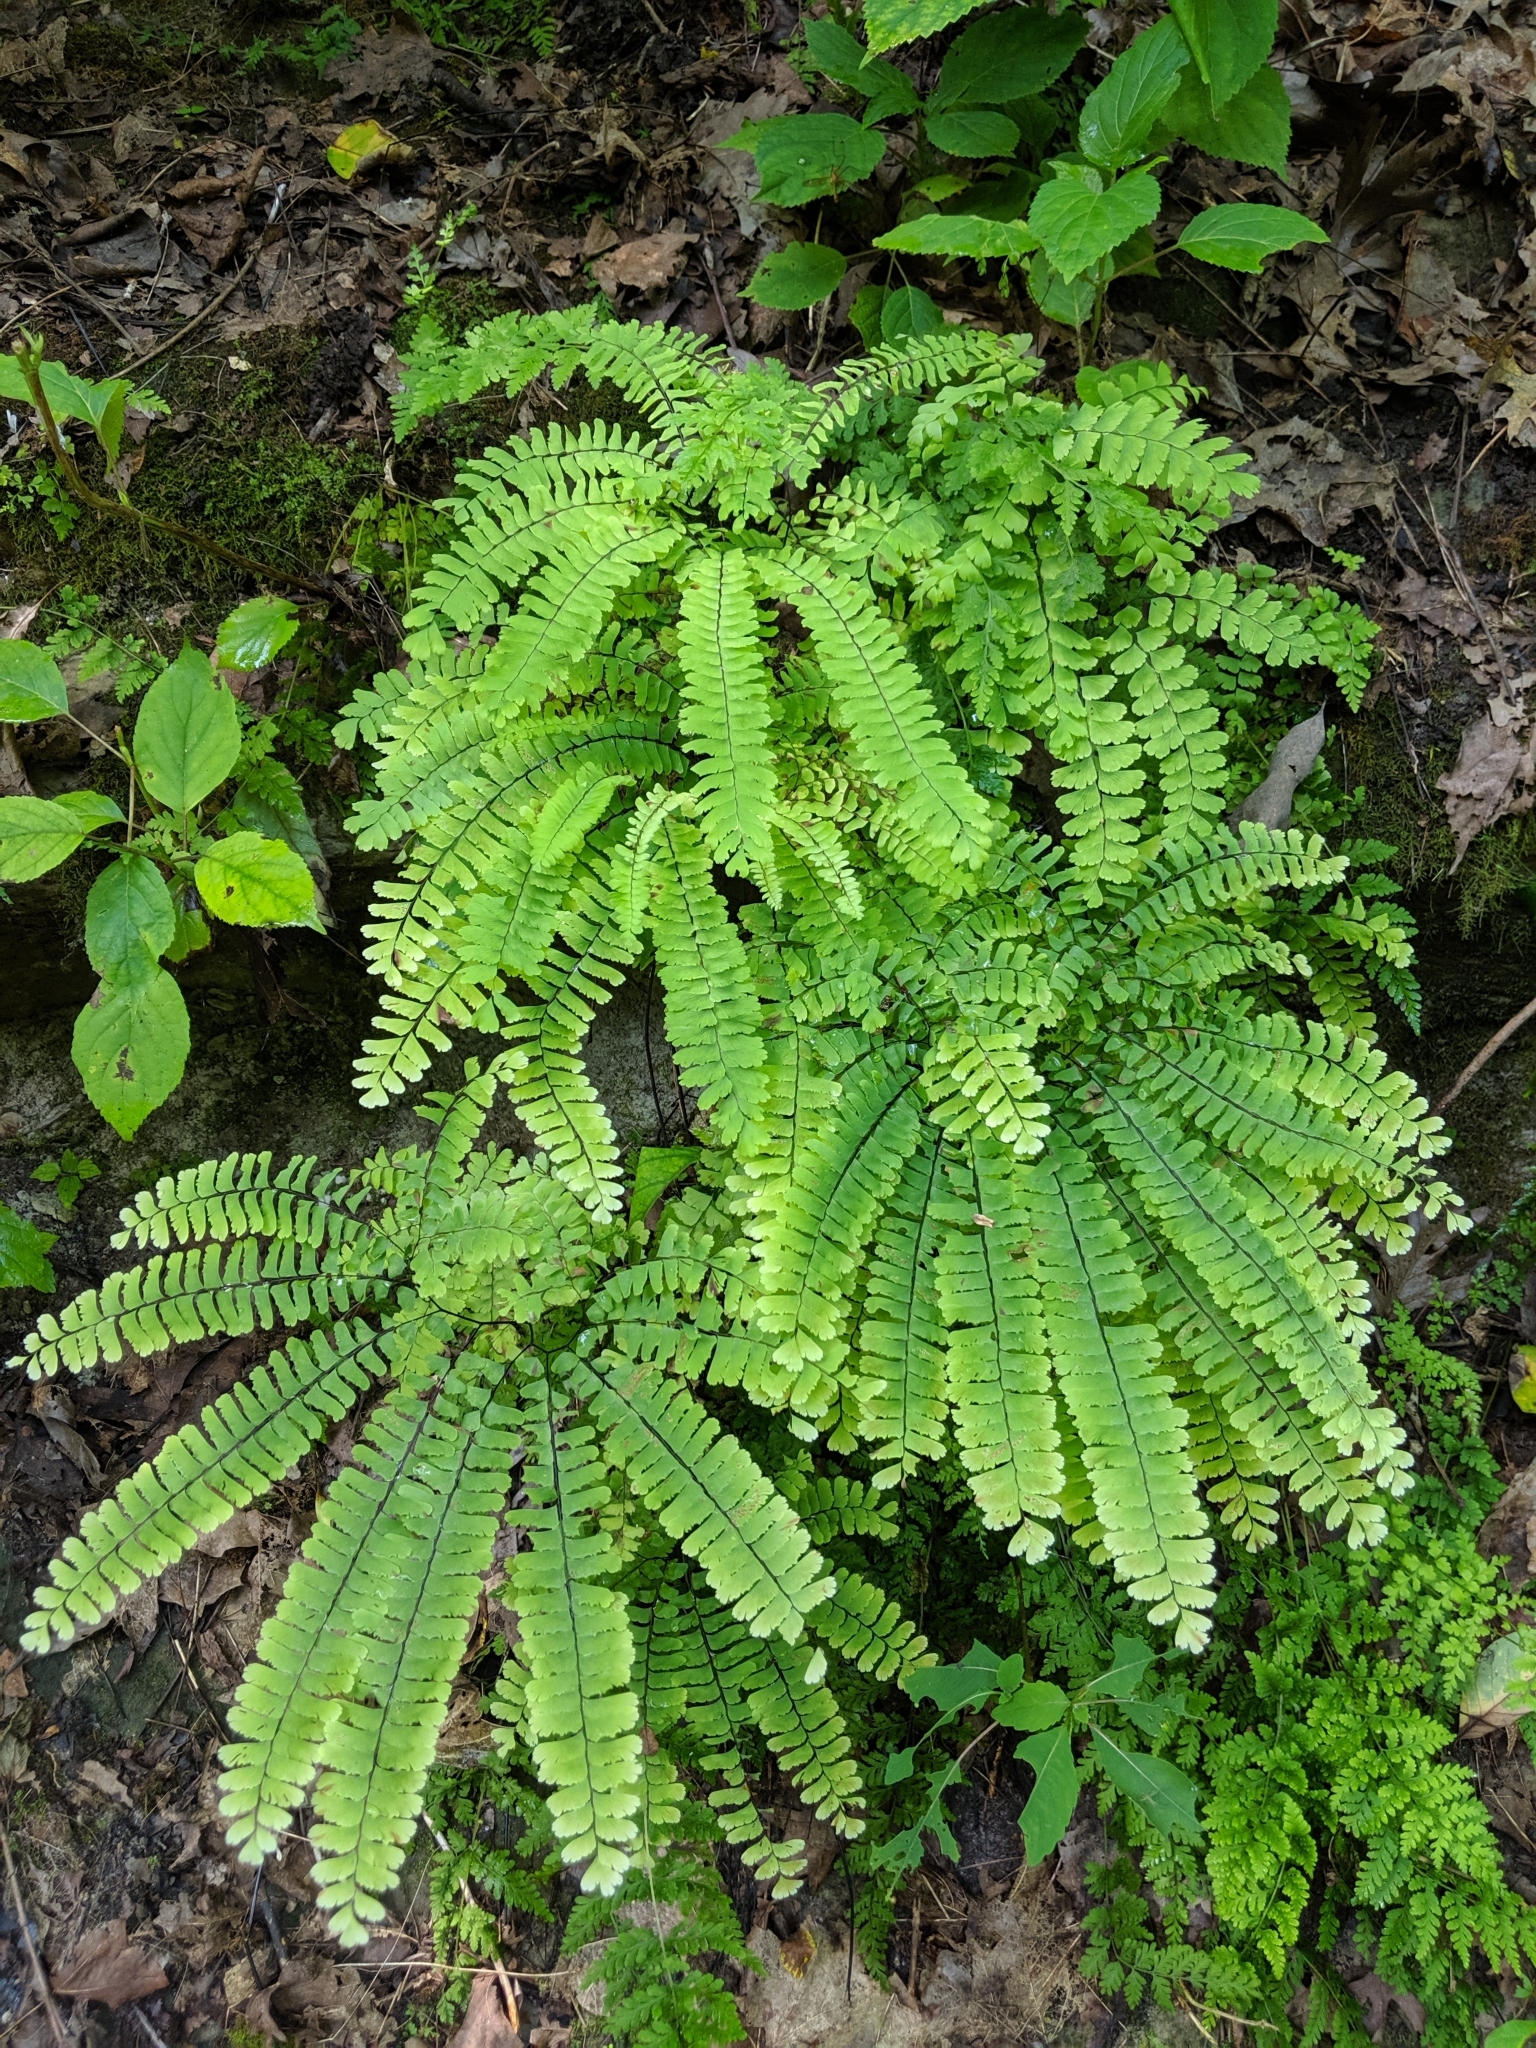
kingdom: Plantae
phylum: Tracheophyta
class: Polypodiopsida
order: Polypodiales
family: Pteridaceae
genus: Adiantum
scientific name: Adiantum pedatum
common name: Five-finger fern
